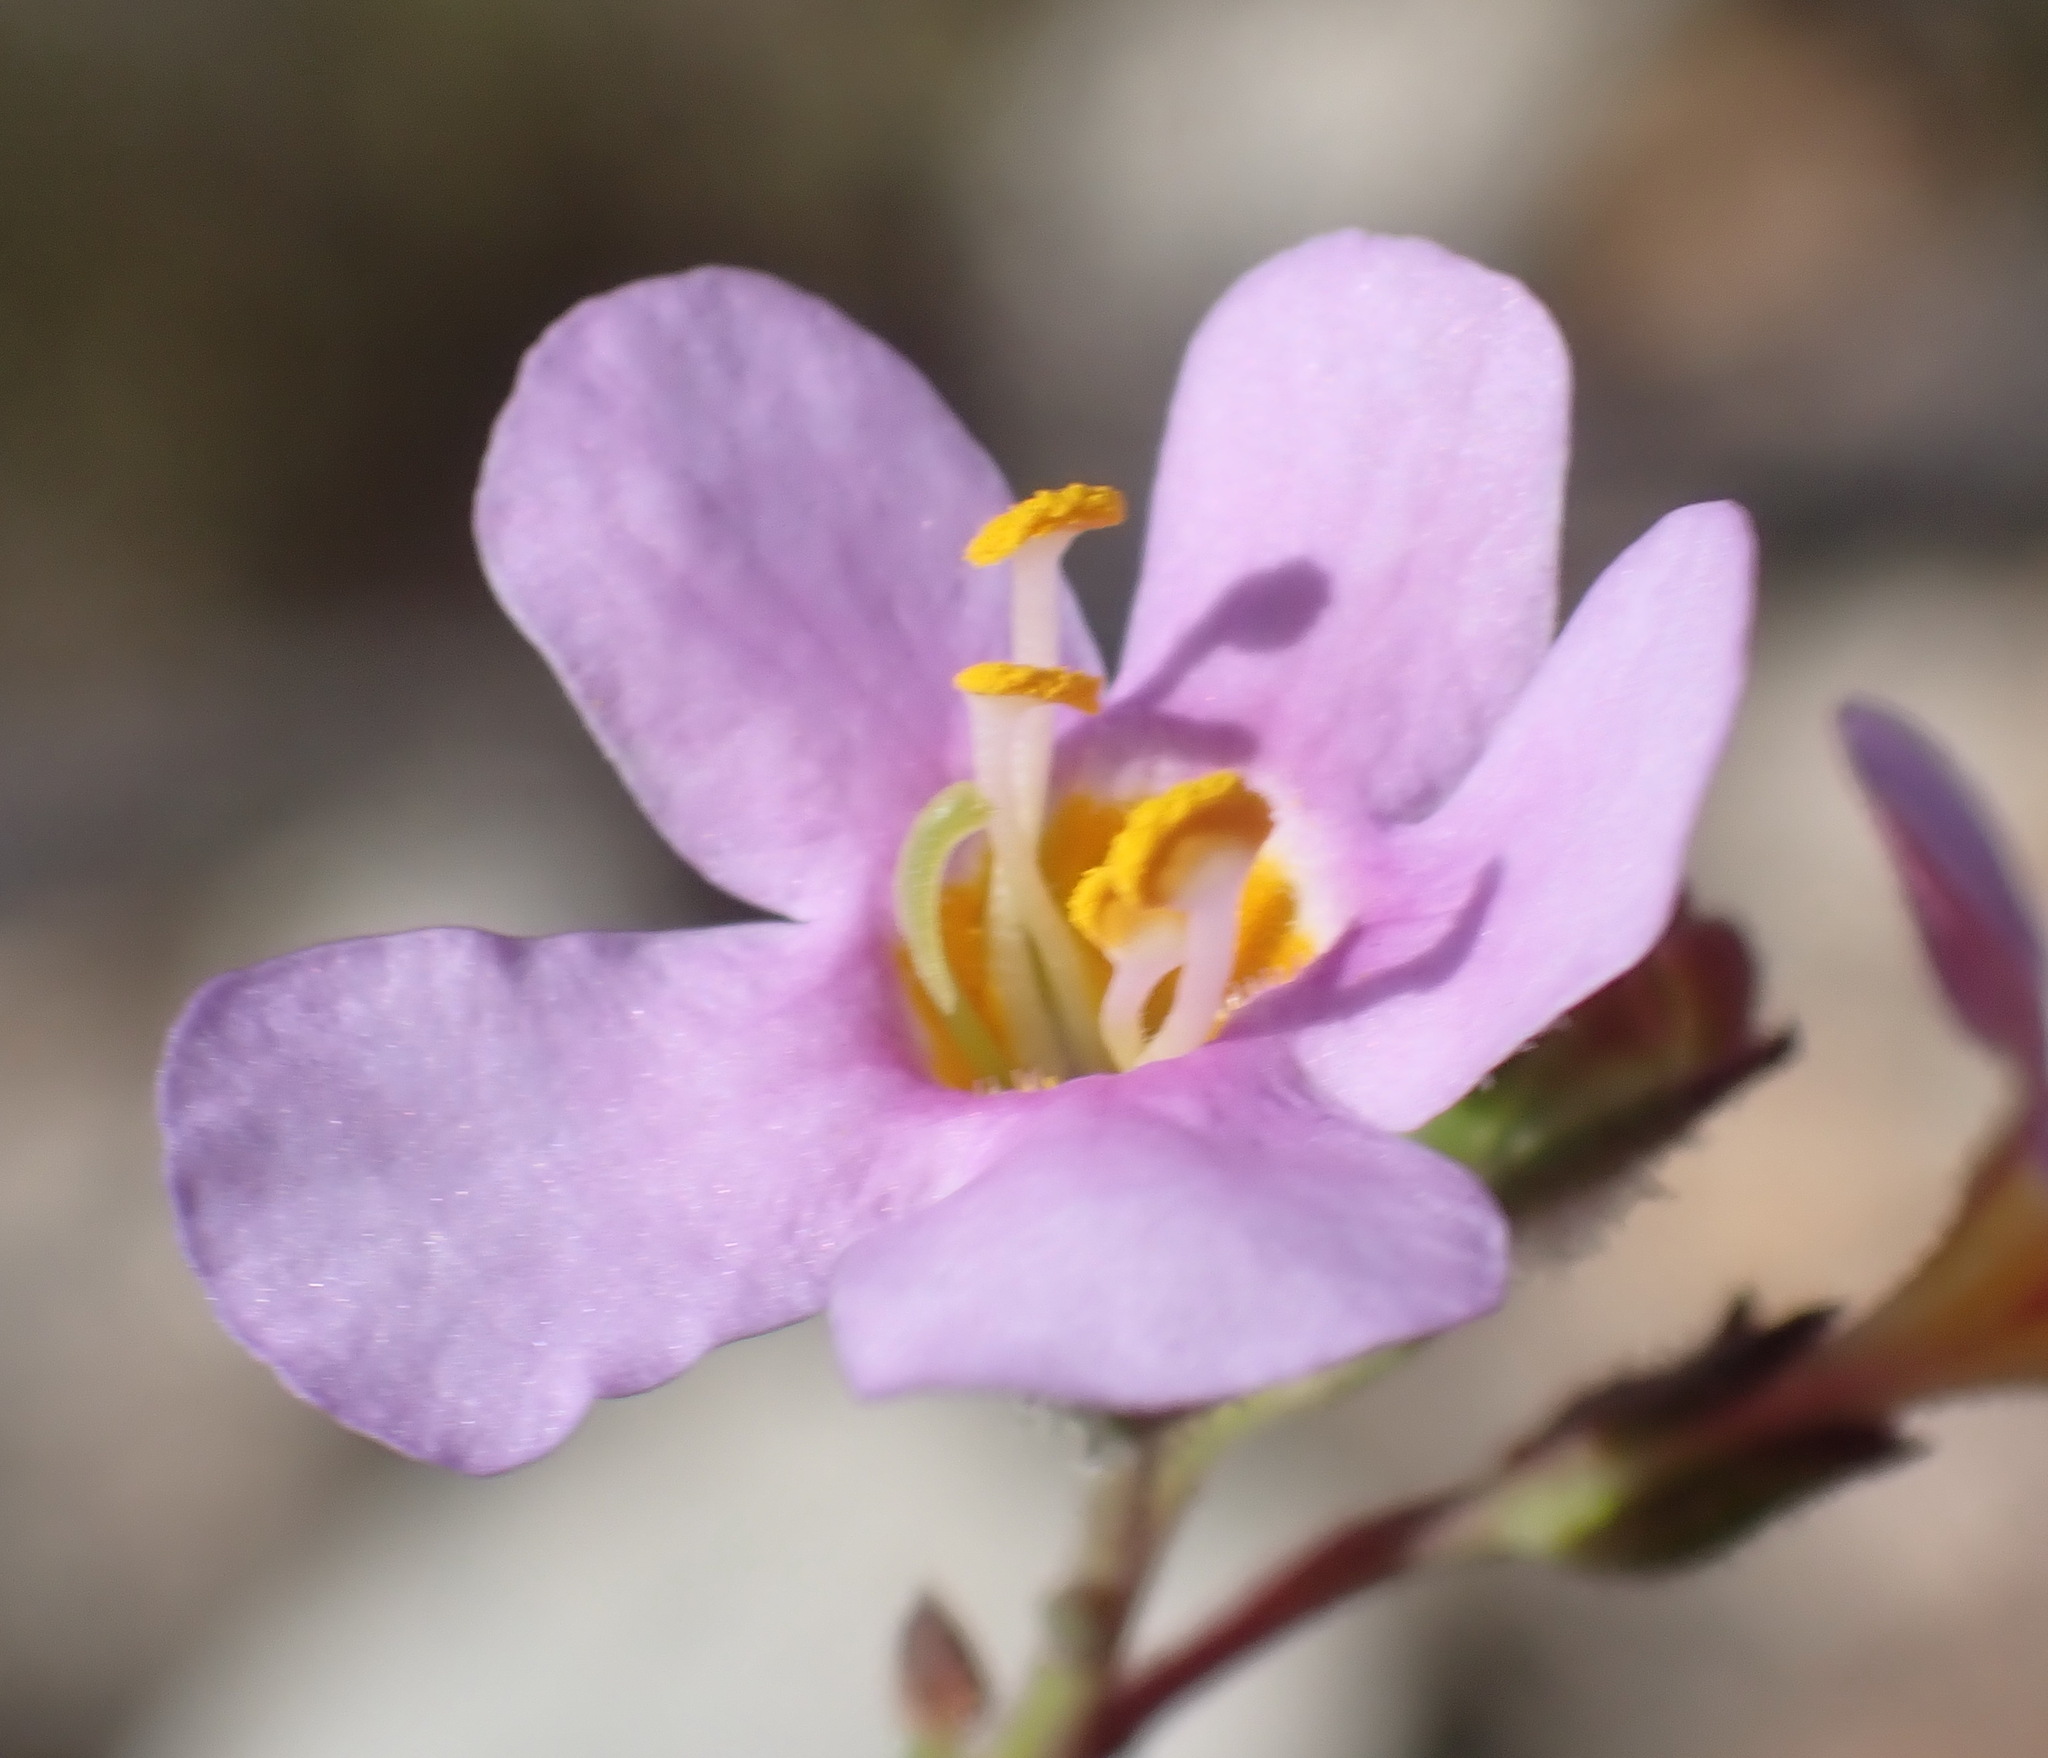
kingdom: Plantae
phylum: Tracheophyta
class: Magnoliopsida
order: Lamiales
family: Scrophulariaceae
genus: Chaenostoma
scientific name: Chaenostoma subnudum
